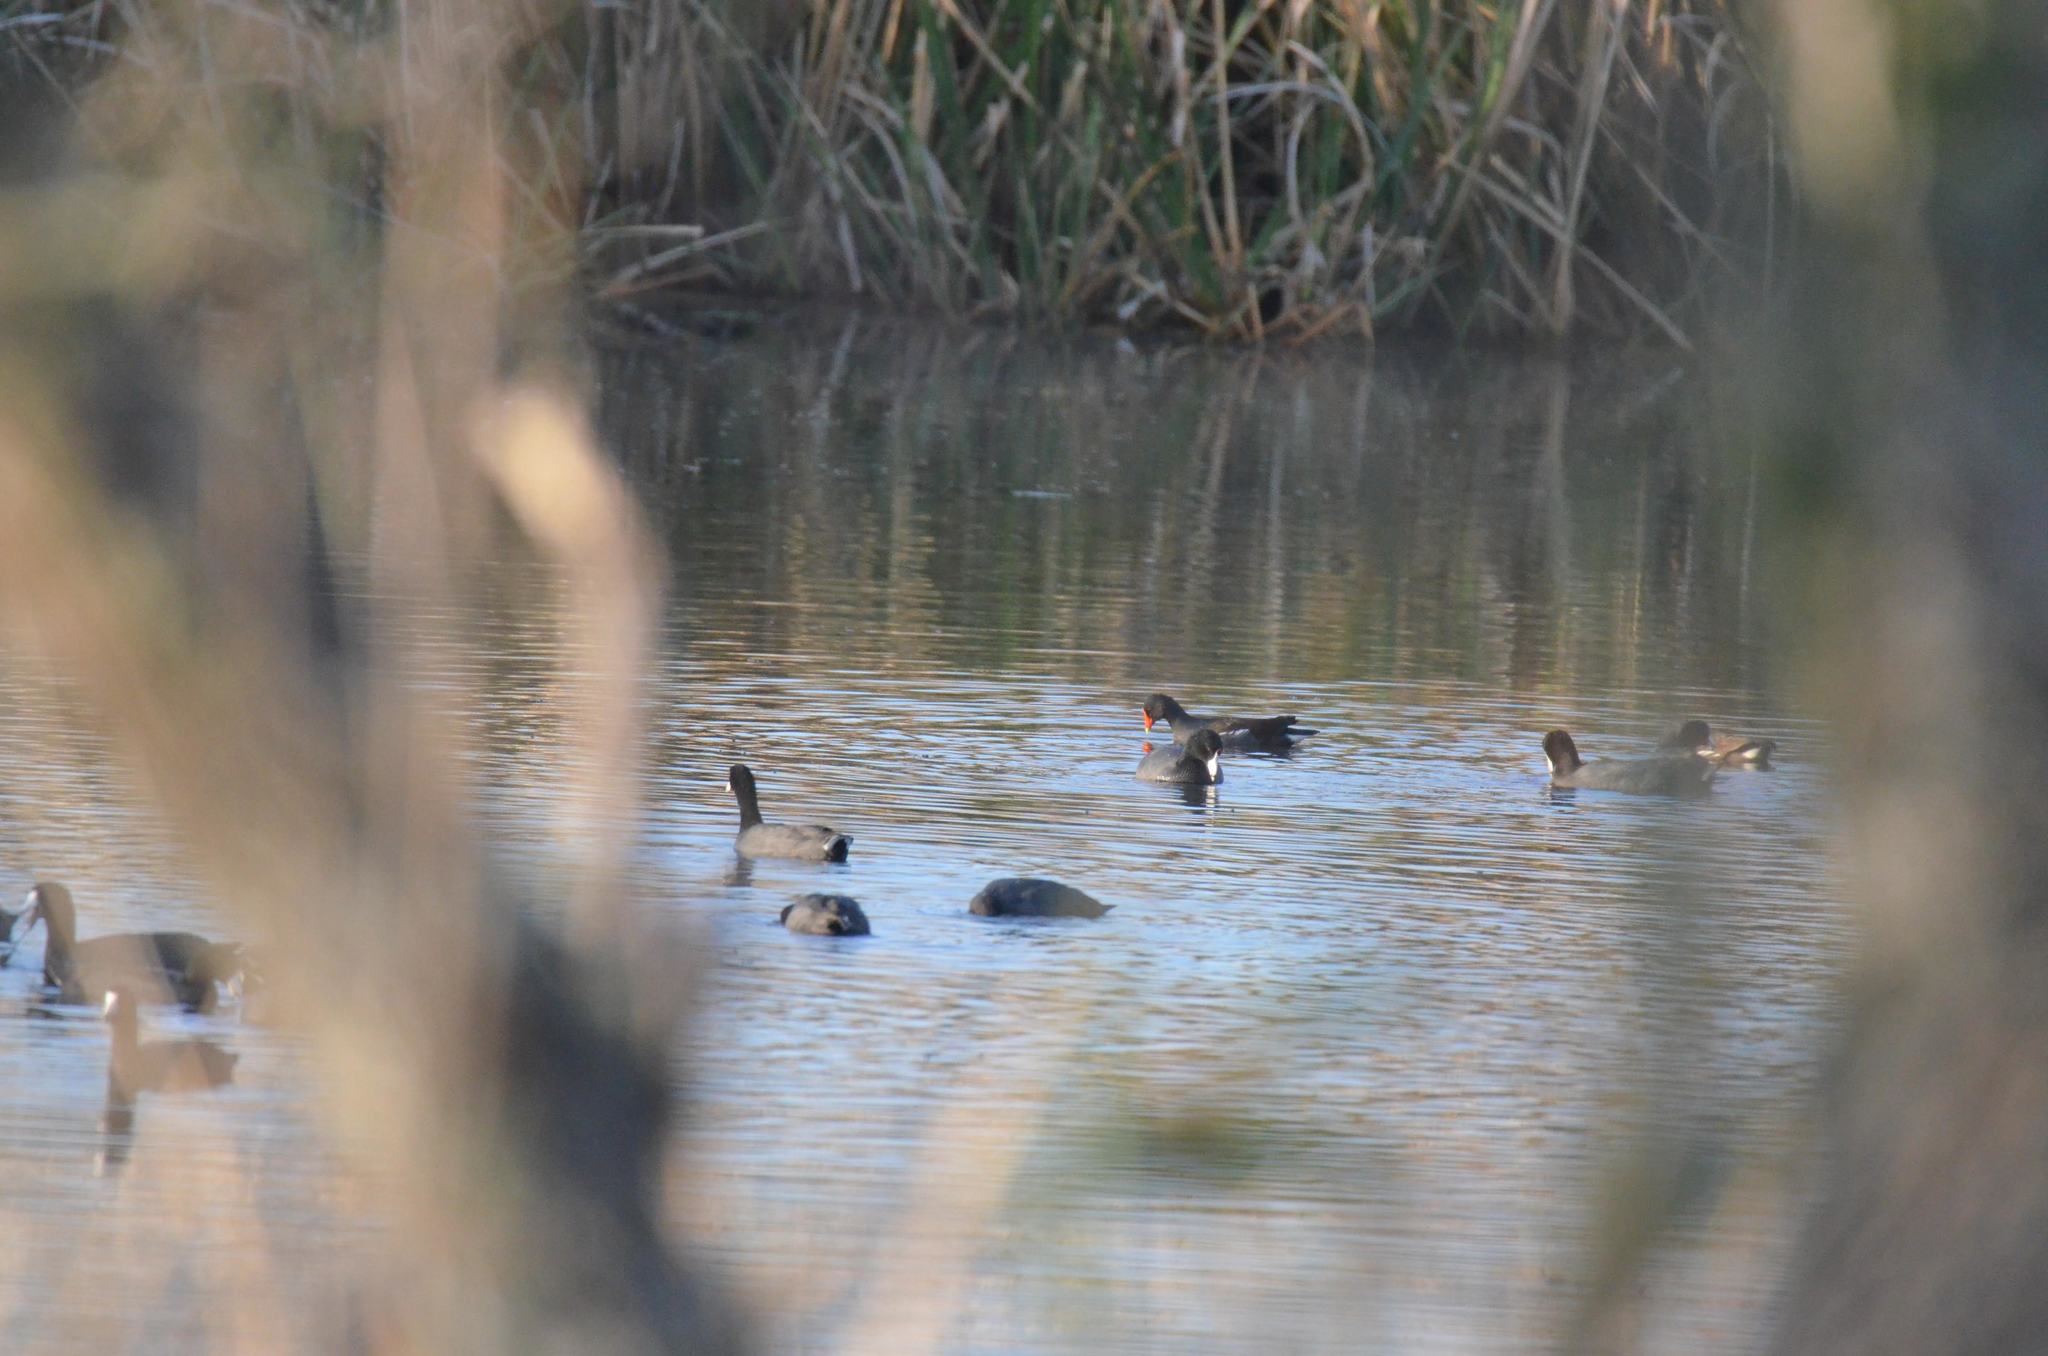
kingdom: Animalia
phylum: Chordata
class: Aves
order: Gruiformes
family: Rallidae
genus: Fulica
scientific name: Fulica americana
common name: American coot
